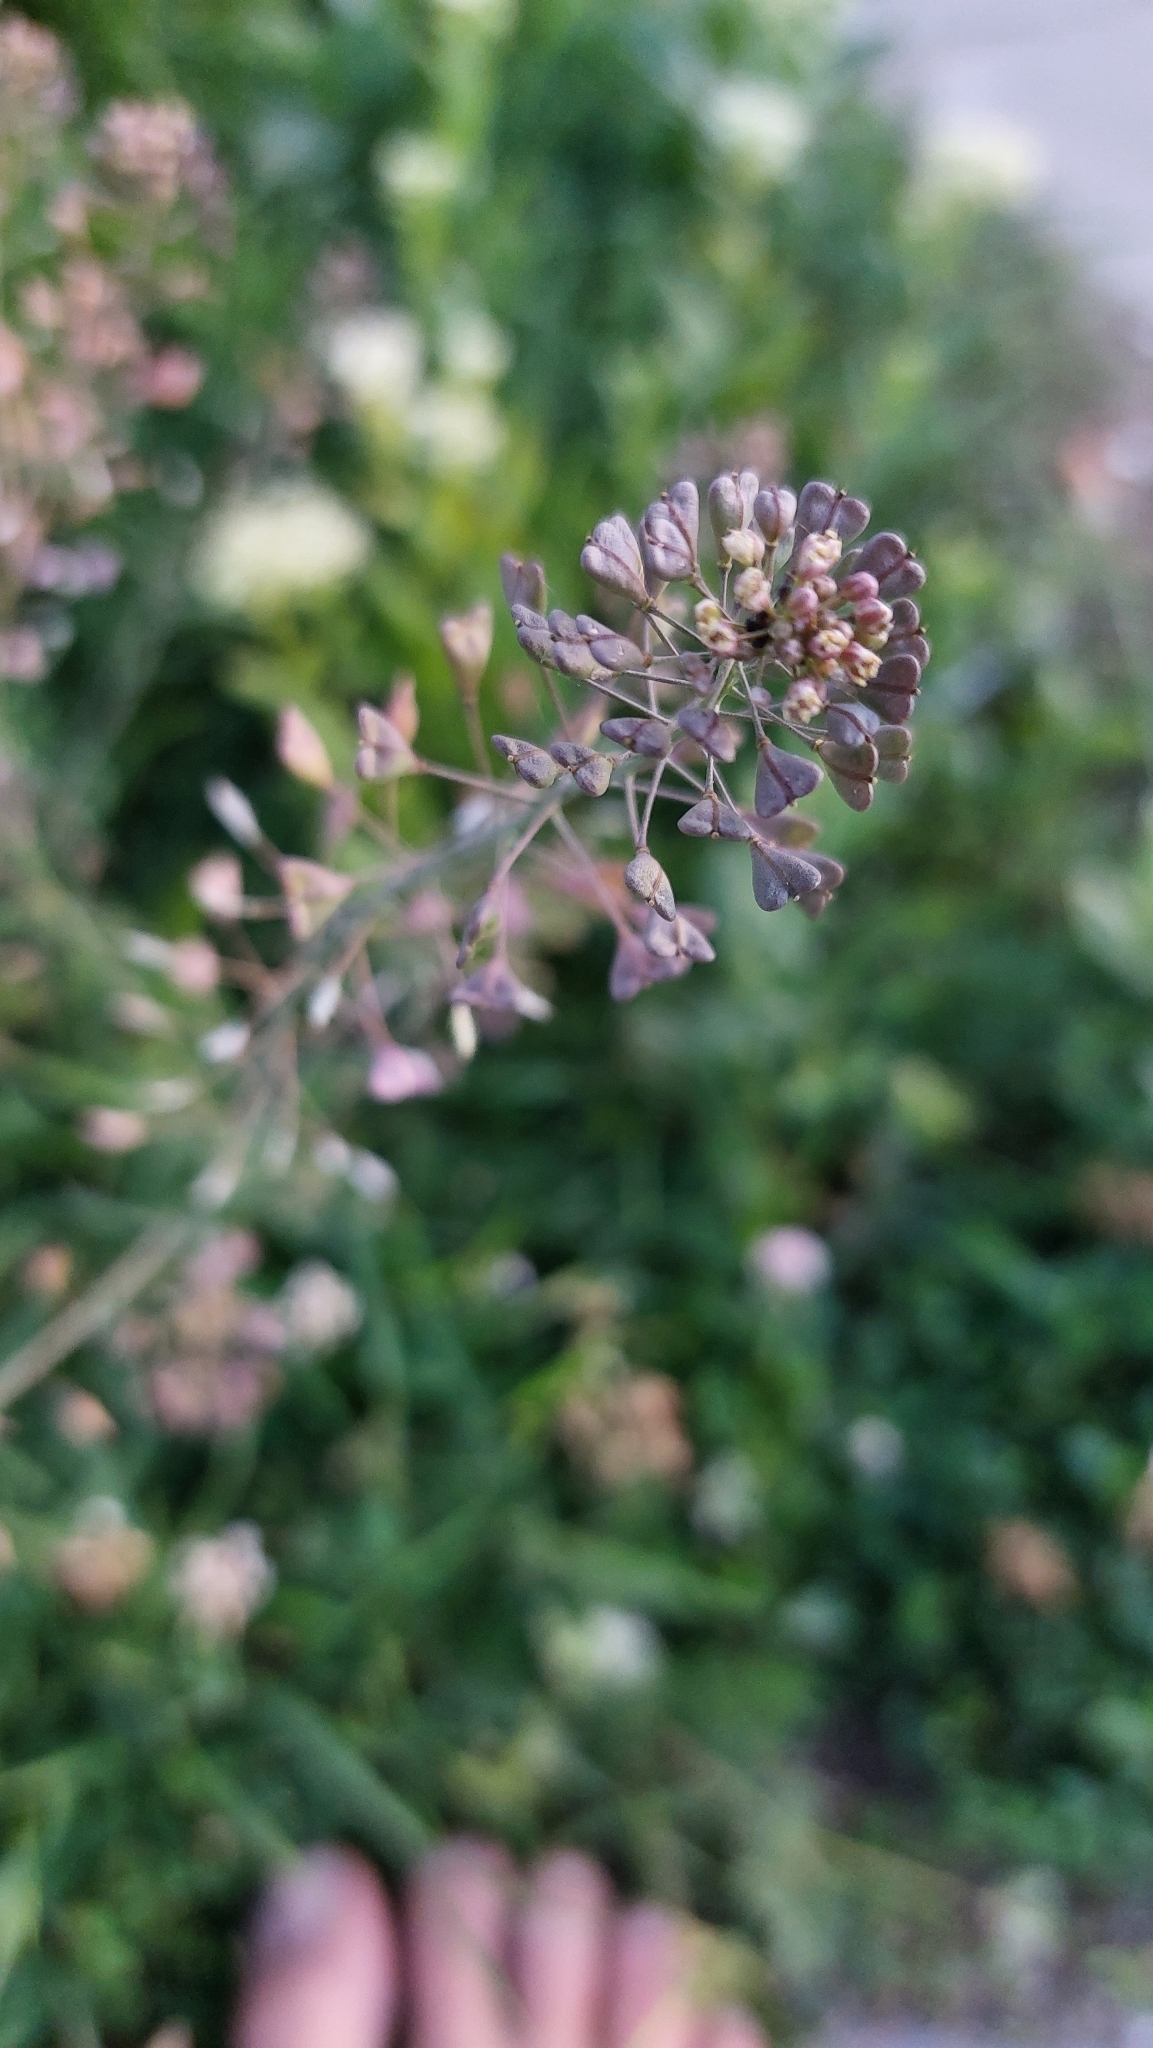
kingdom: Plantae
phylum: Tracheophyta
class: Magnoliopsida
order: Brassicales
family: Brassicaceae
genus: Capsella
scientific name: Capsella bursa-pastoris
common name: Shepherd's purse
